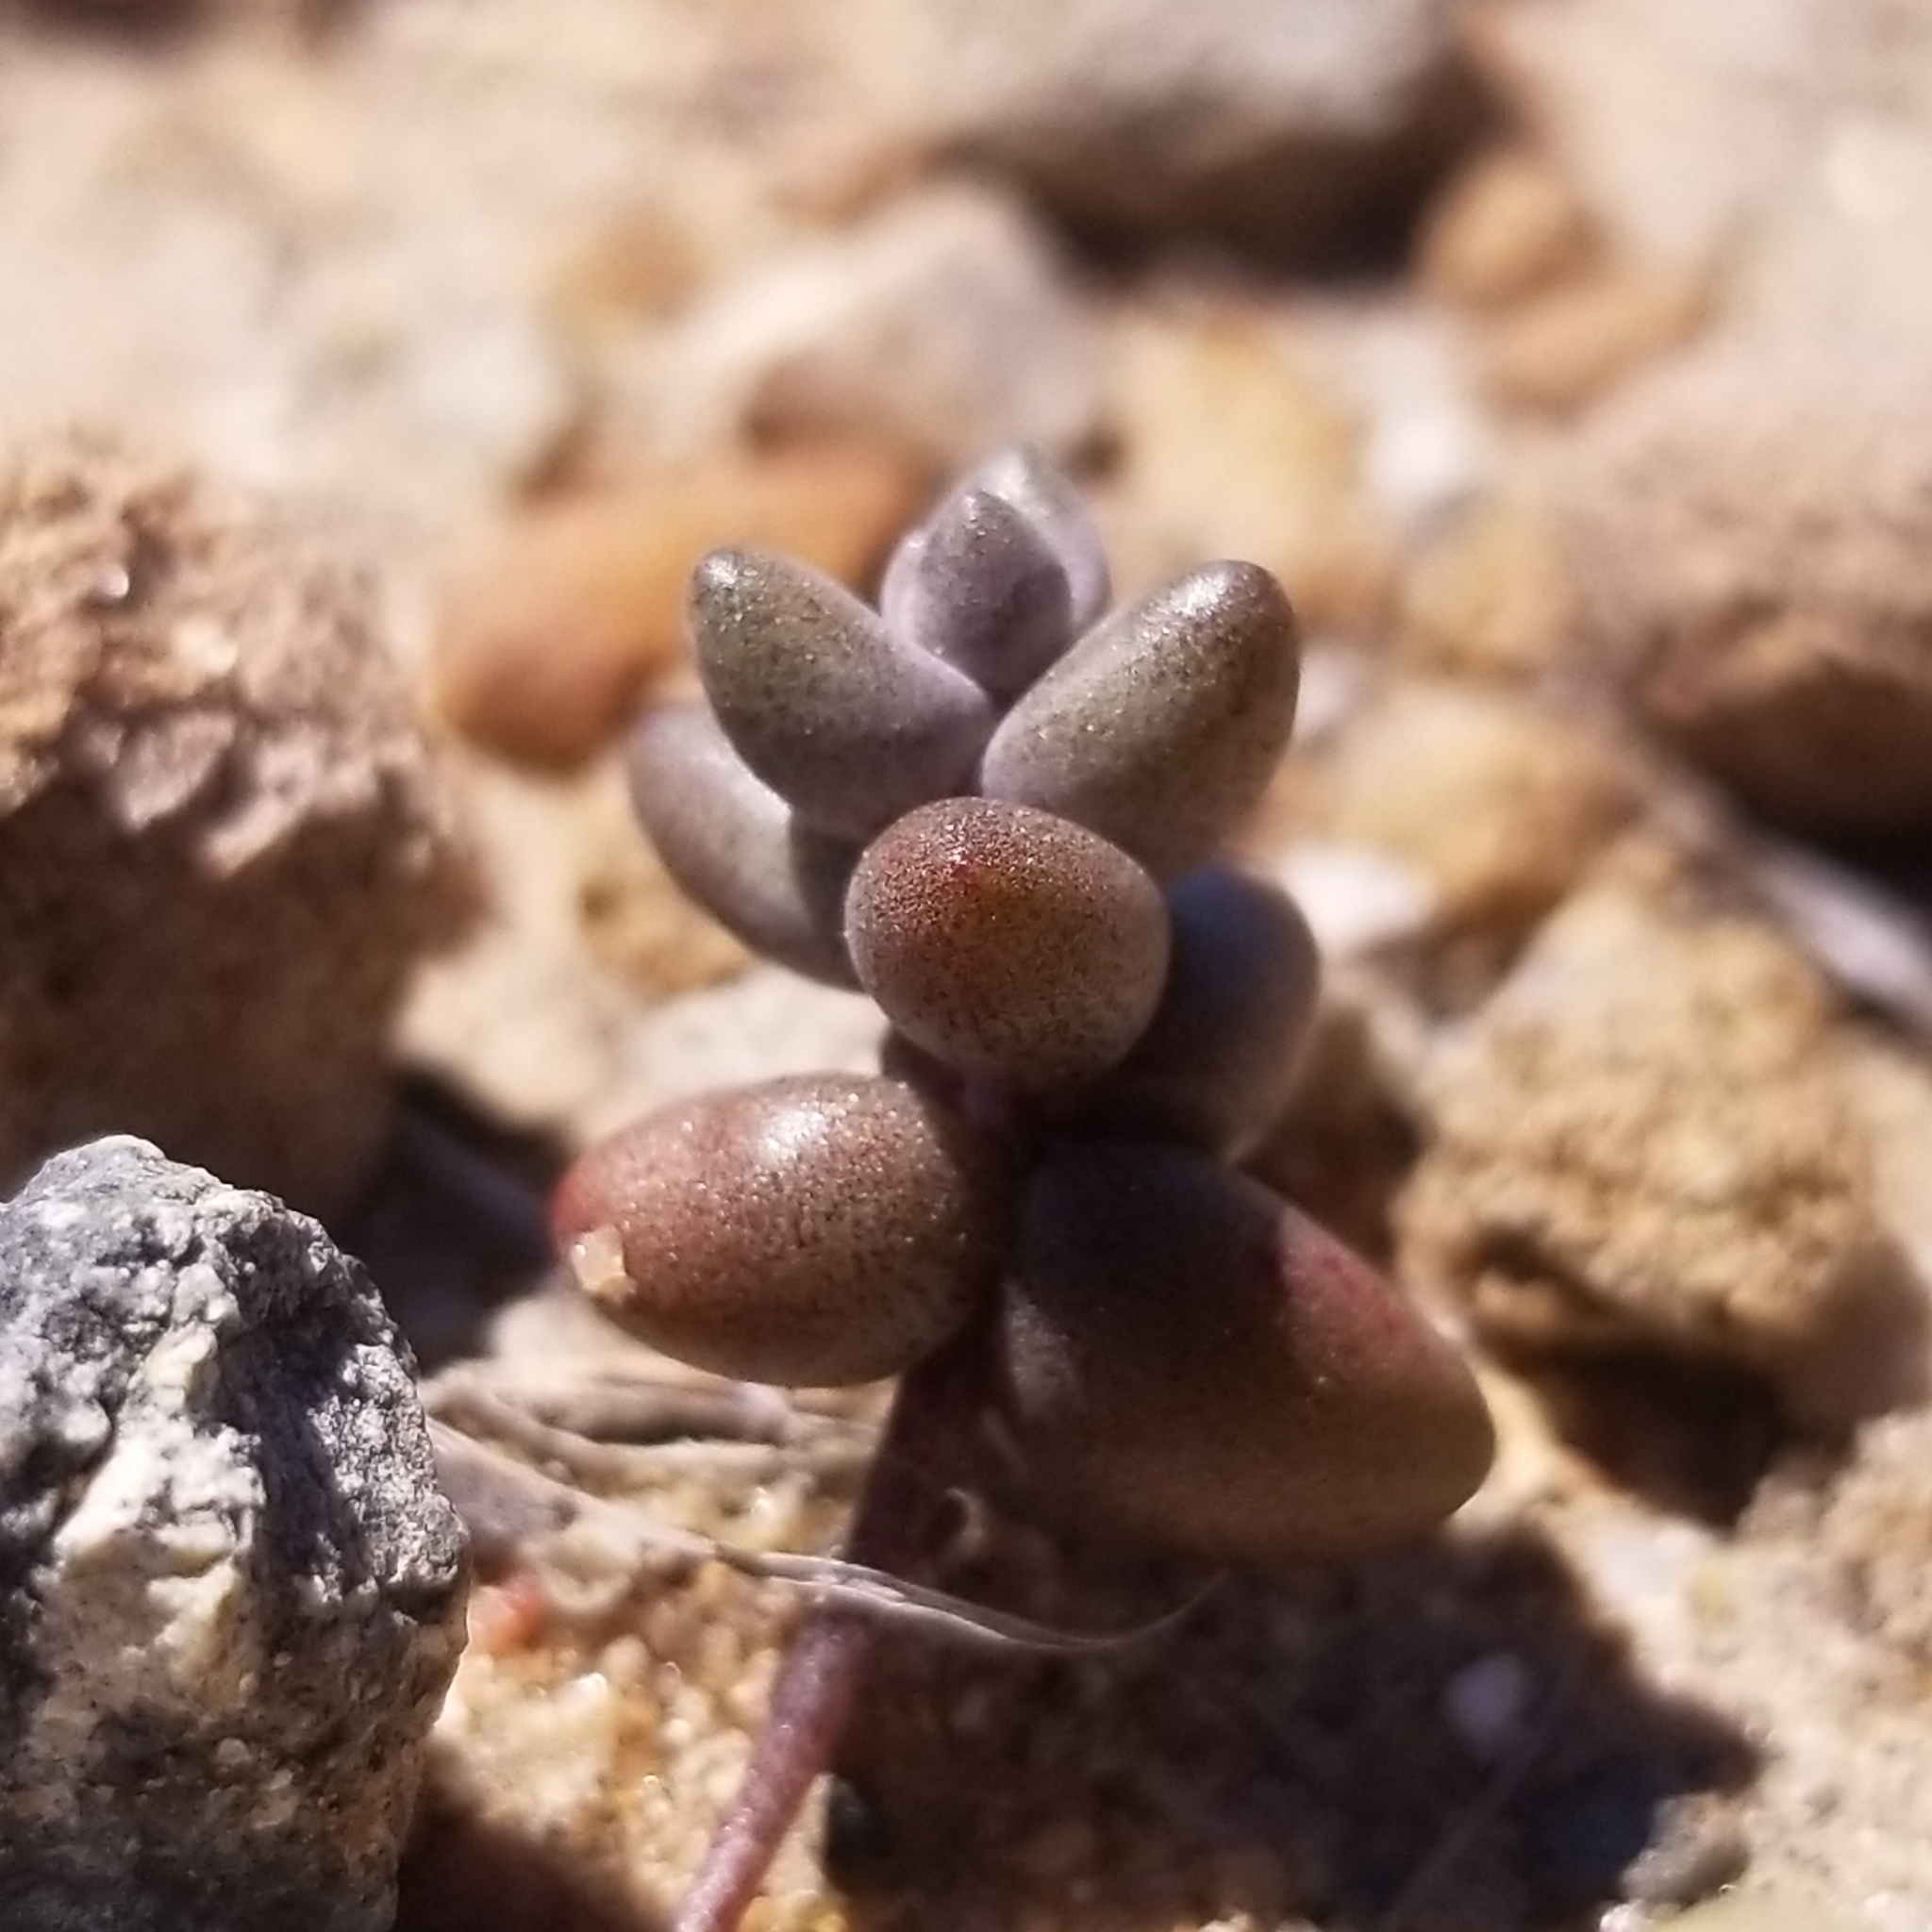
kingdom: Plantae
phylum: Tracheophyta
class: Magnoliopsida
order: Saxifragales
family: Crassulaceae
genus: Dudleya
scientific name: Dudleya blochmaniae
